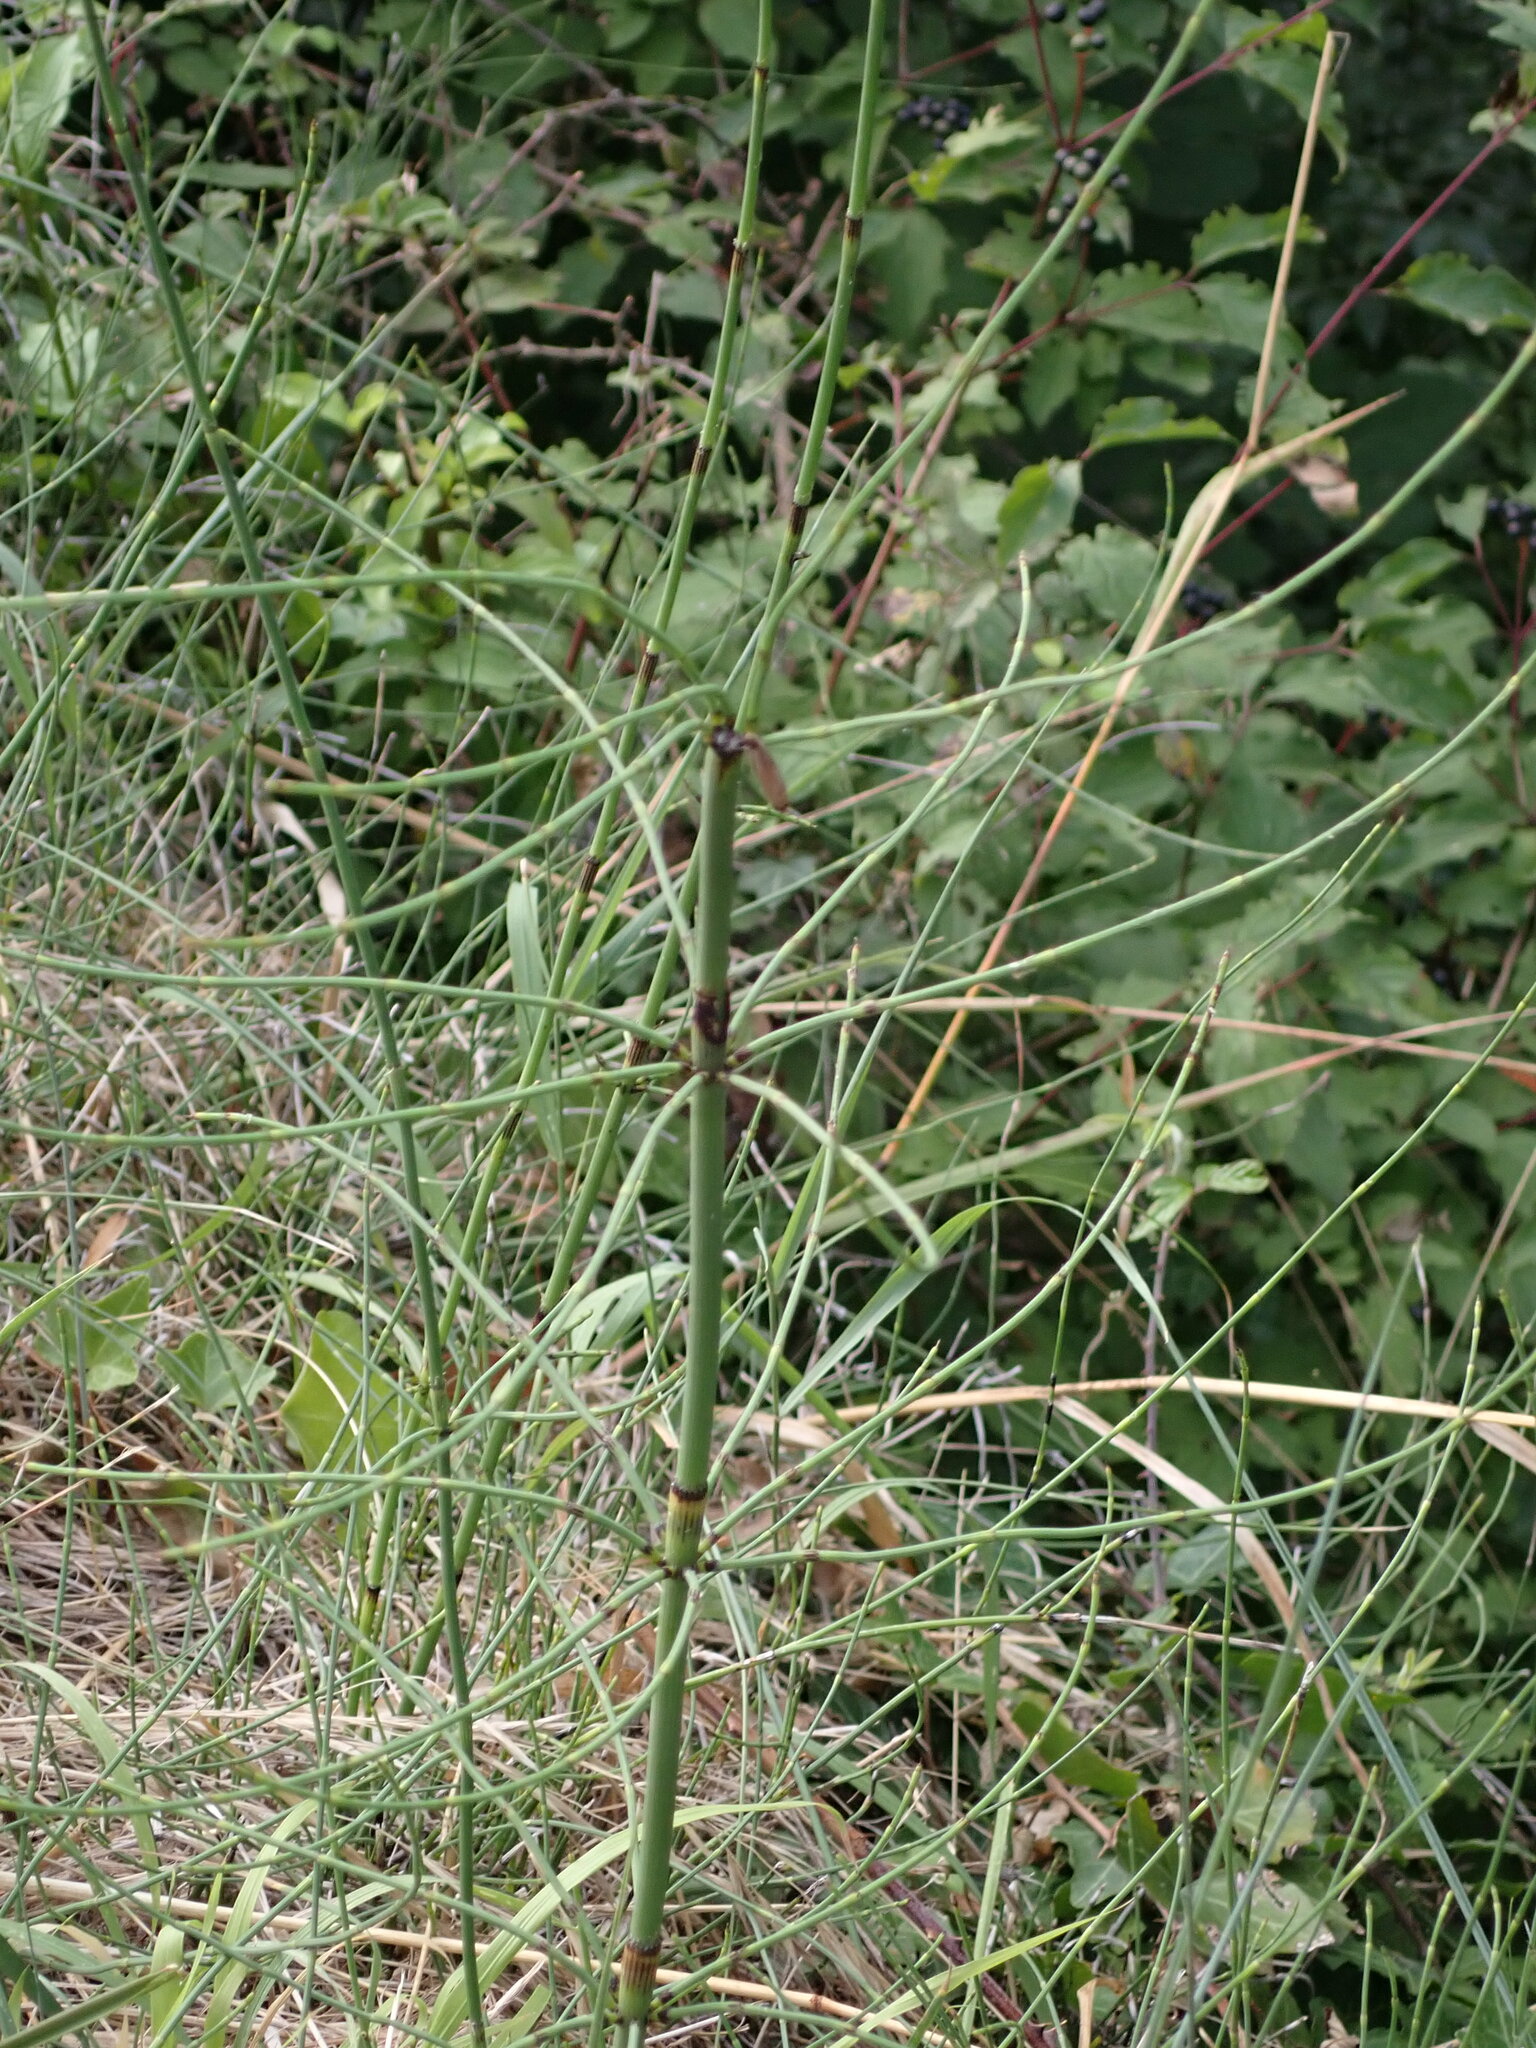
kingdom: Plantae
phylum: Tracheophyta
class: Polypodiopsida
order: Equisetales
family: Equisetaceae
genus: Equisetum
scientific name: Equisetum ramosissimum
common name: Branched horsetail
